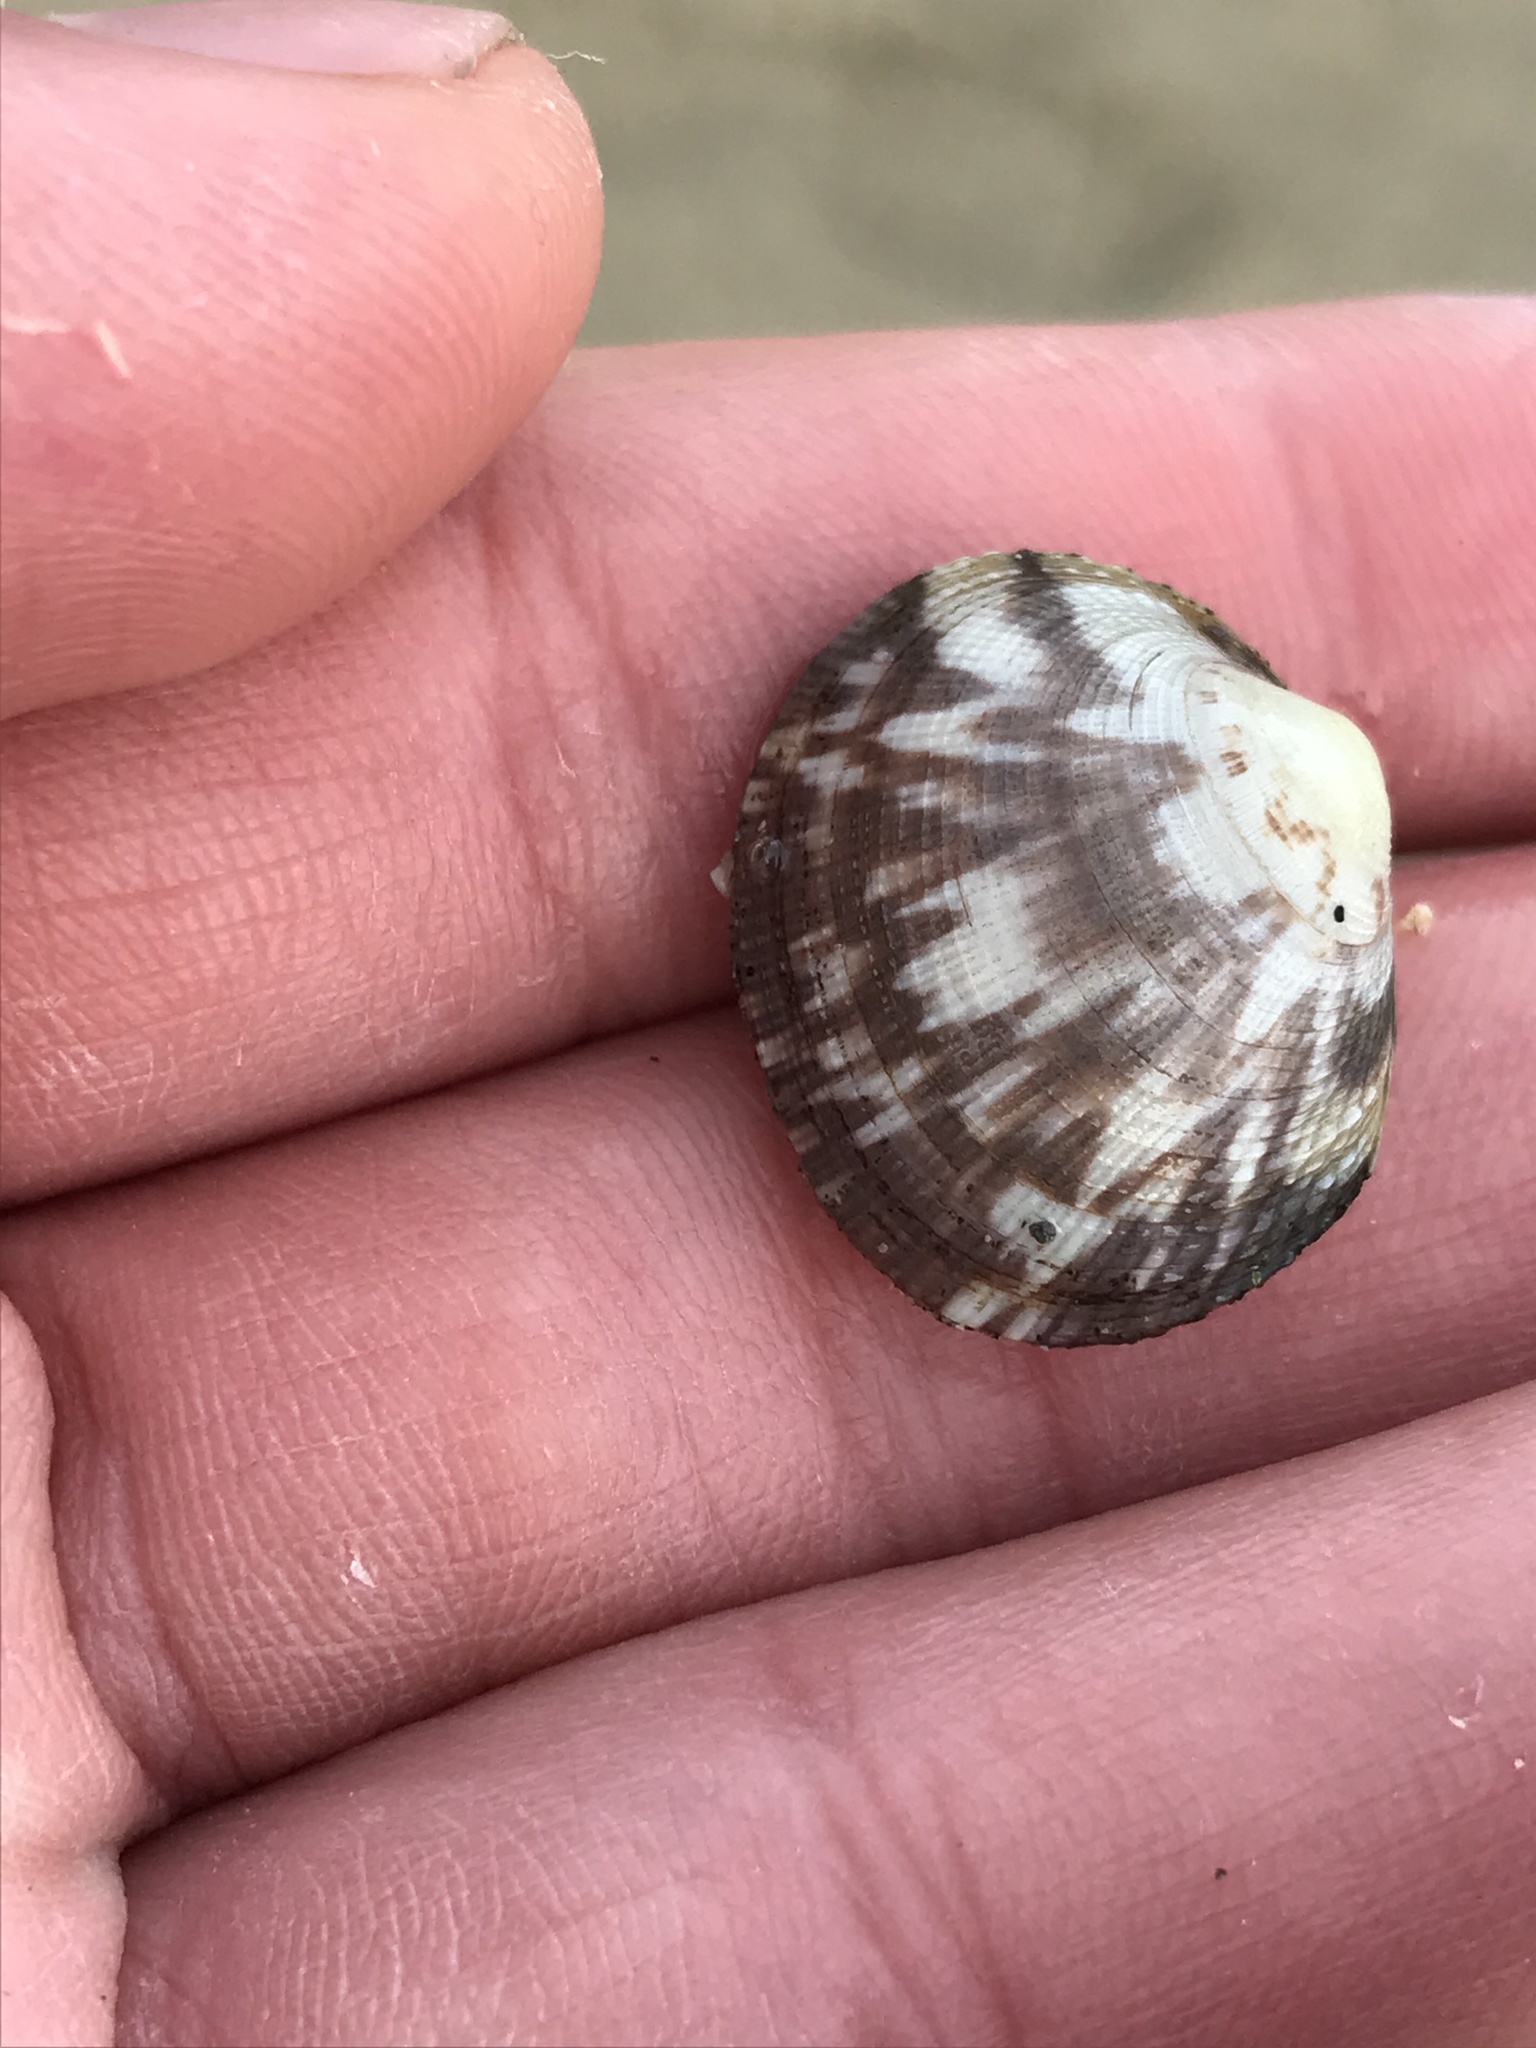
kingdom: Animalia
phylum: Mollusca
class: Bivalvia
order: Venerida
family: Veneridae
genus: Leukoma
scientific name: Leukoma staminea
